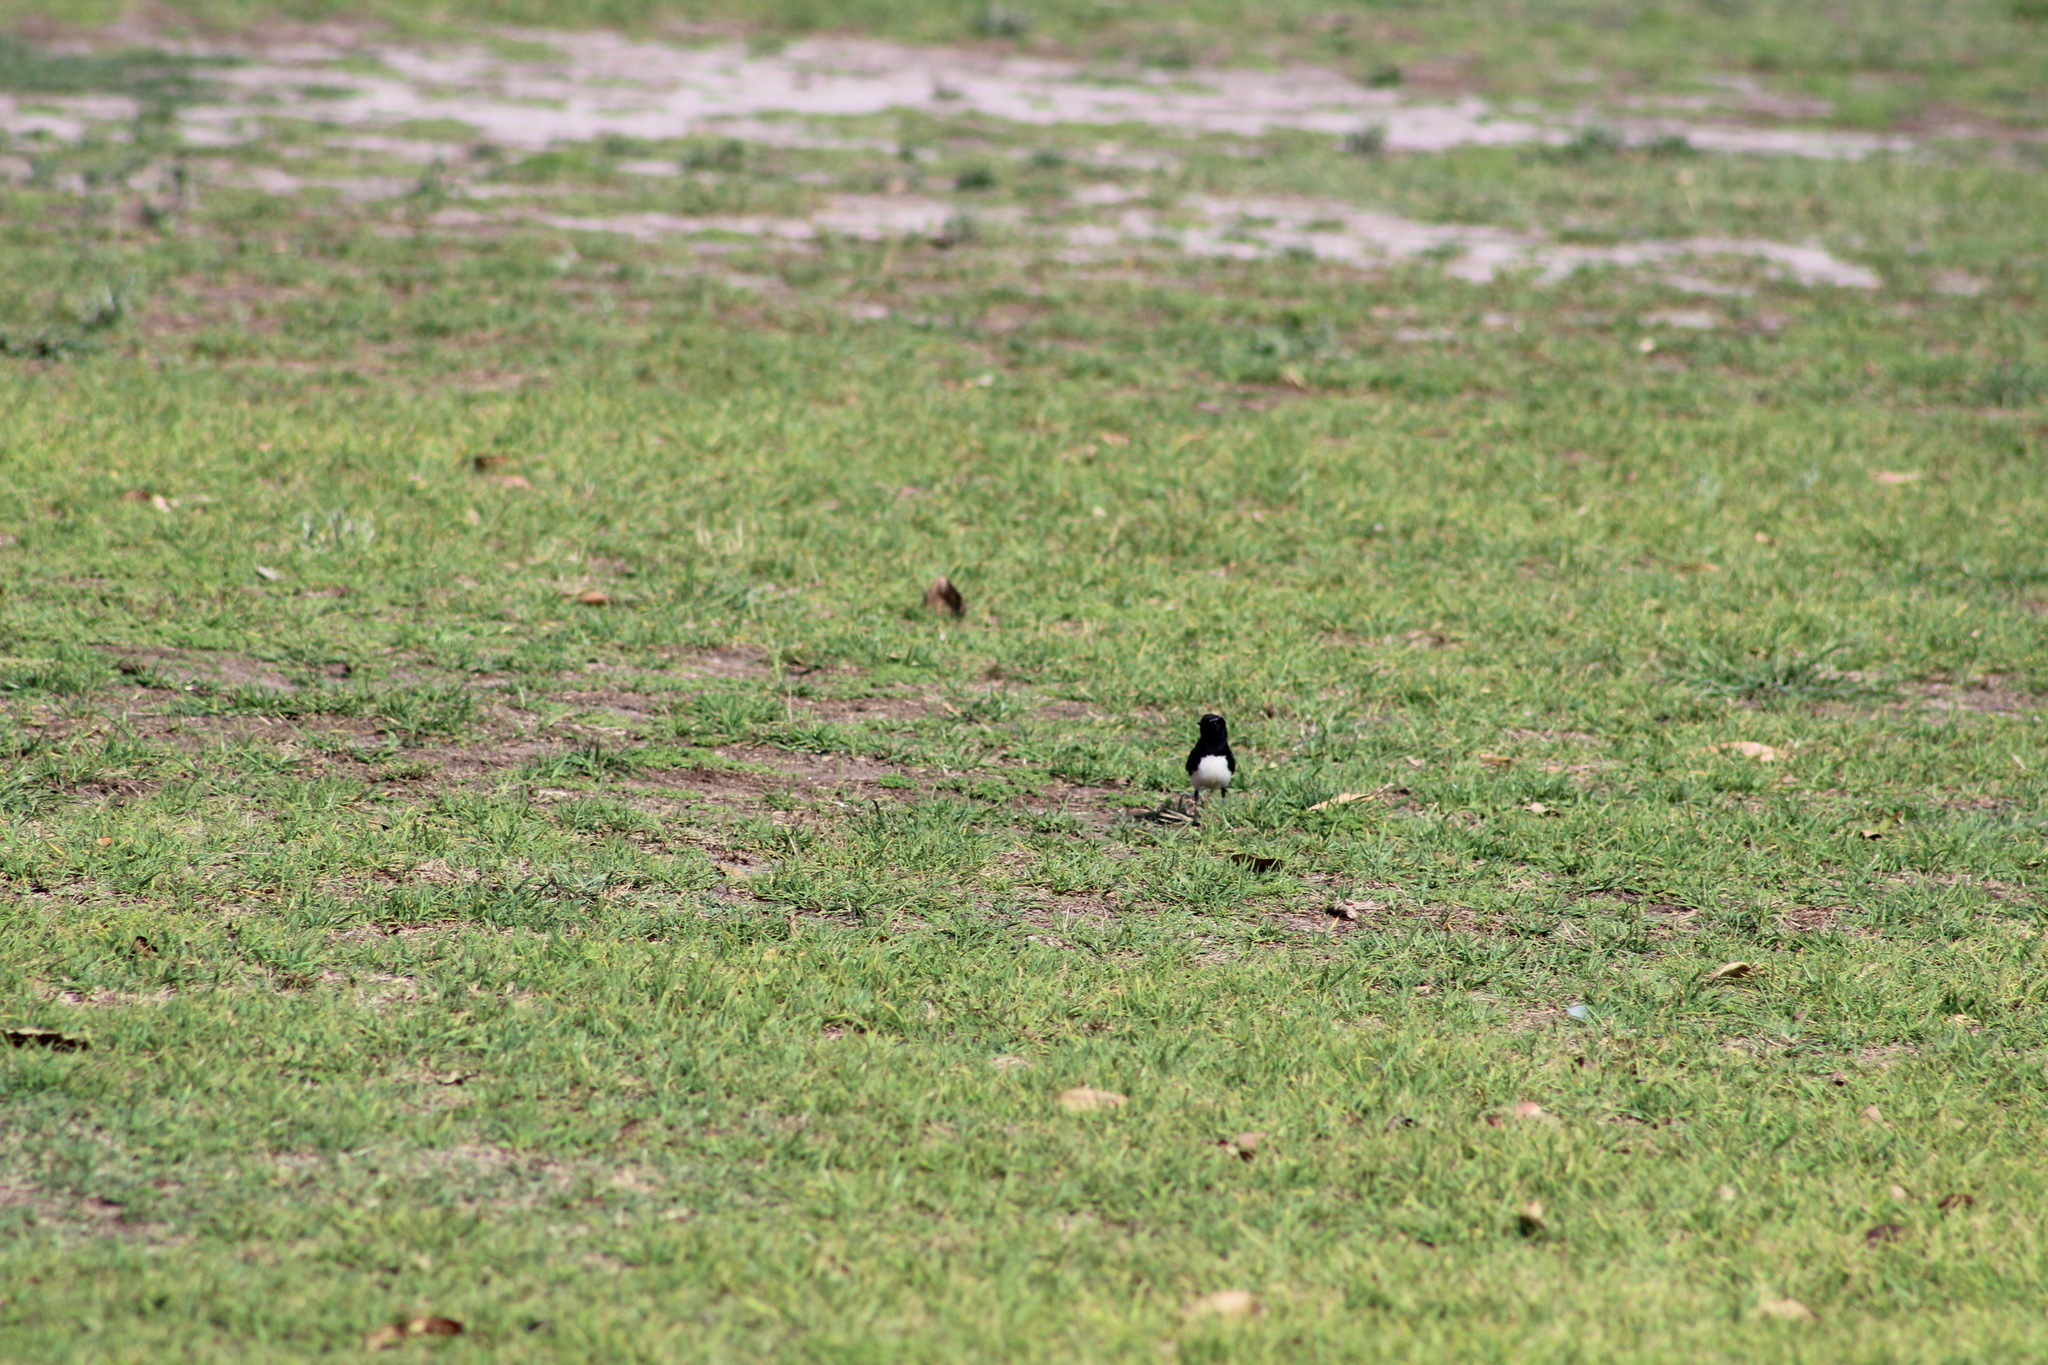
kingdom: Animalia
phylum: Chordata
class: Aves
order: Passeriformes
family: Rhipiduridae
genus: Rhipidura
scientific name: Rhipidura leucophrys
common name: Willie wagtail
